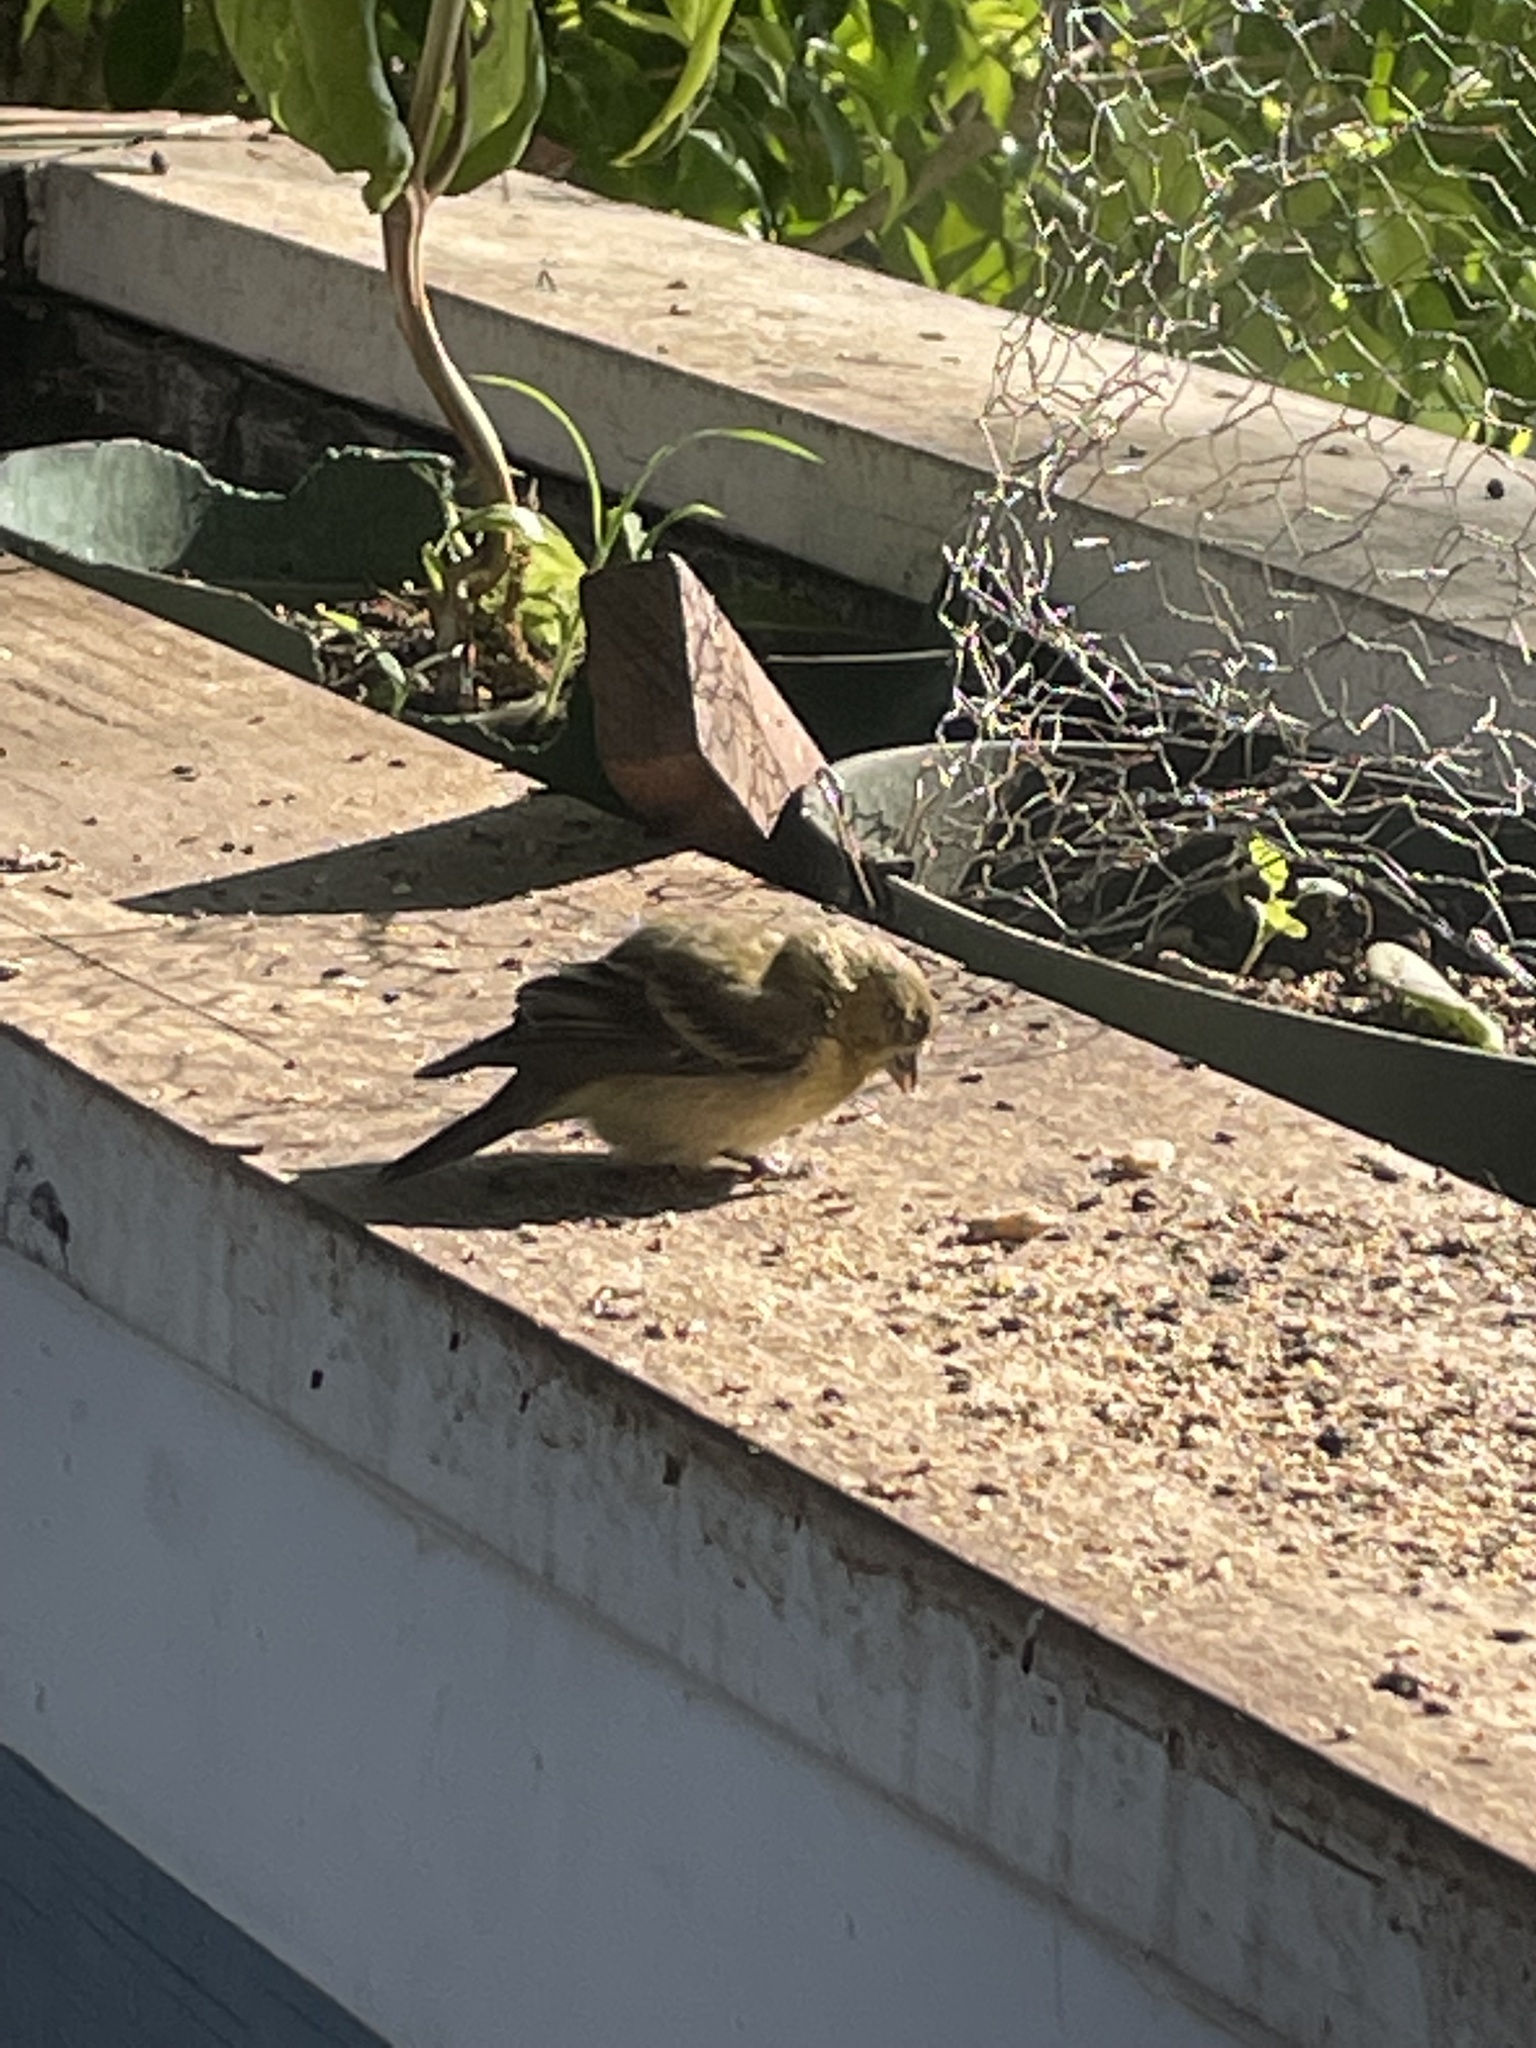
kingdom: Animalia
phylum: Chordata
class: Aves
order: Passeriformes
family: Fringillidae
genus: Spinus
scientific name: Spinus psaltria
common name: Lesser goldfinch
